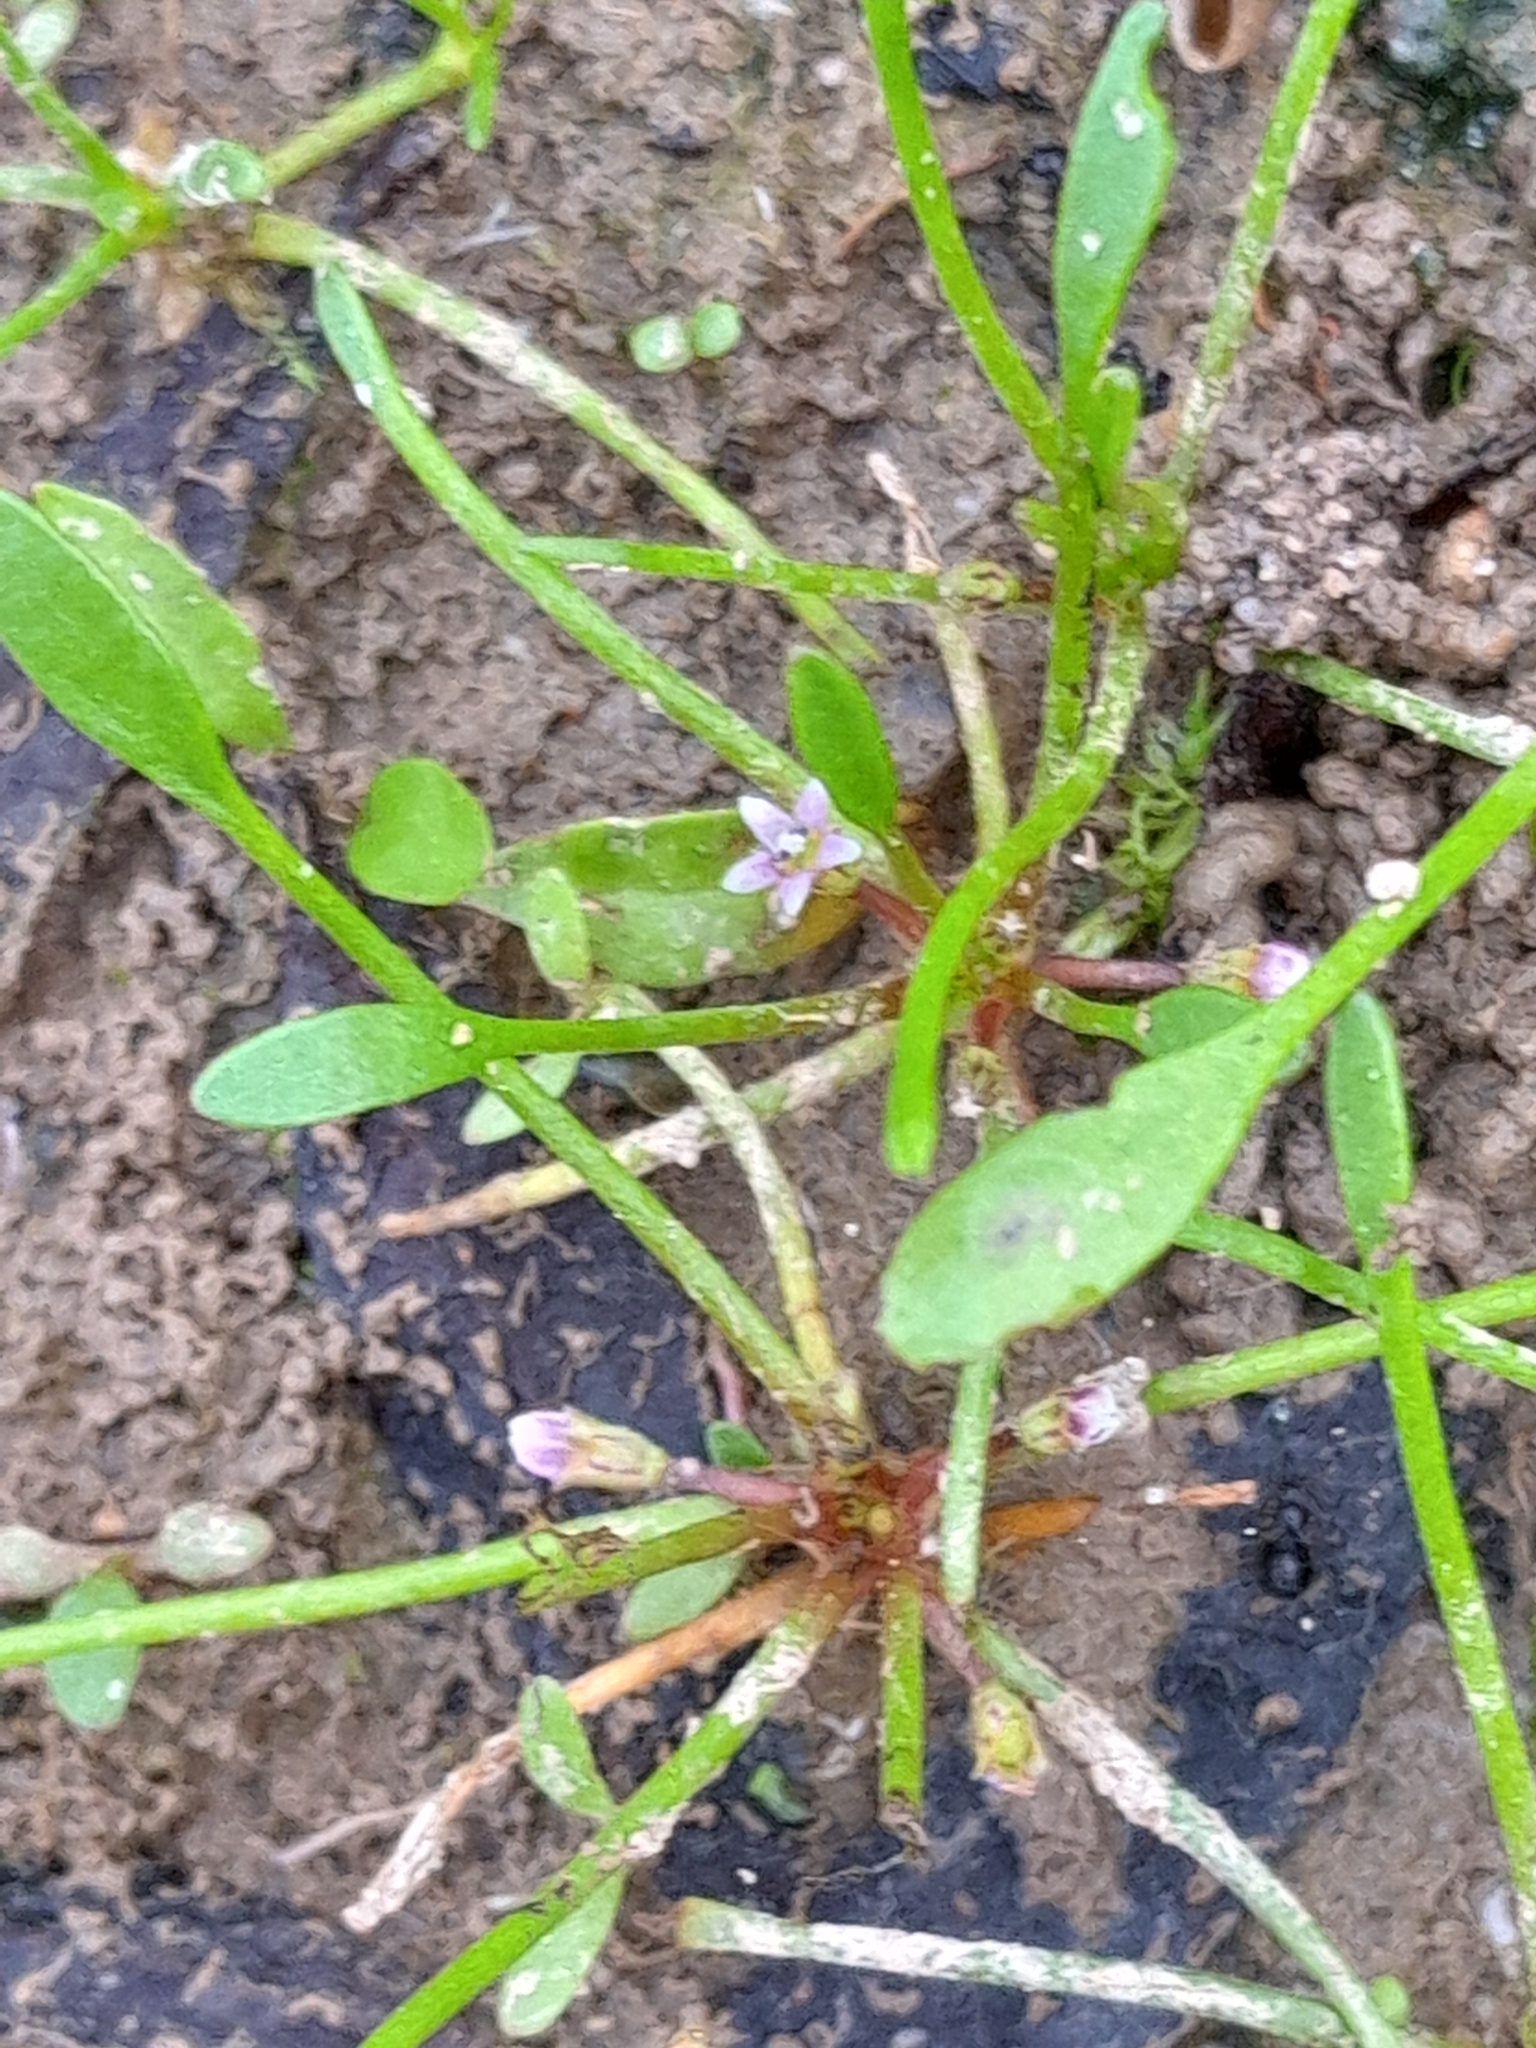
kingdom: Plantae
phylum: Tracheophyta
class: Magnoliopsida
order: Lamiales
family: Scrophulariaceae
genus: Limosella
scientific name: Limosella aquatica
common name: Mudwort
